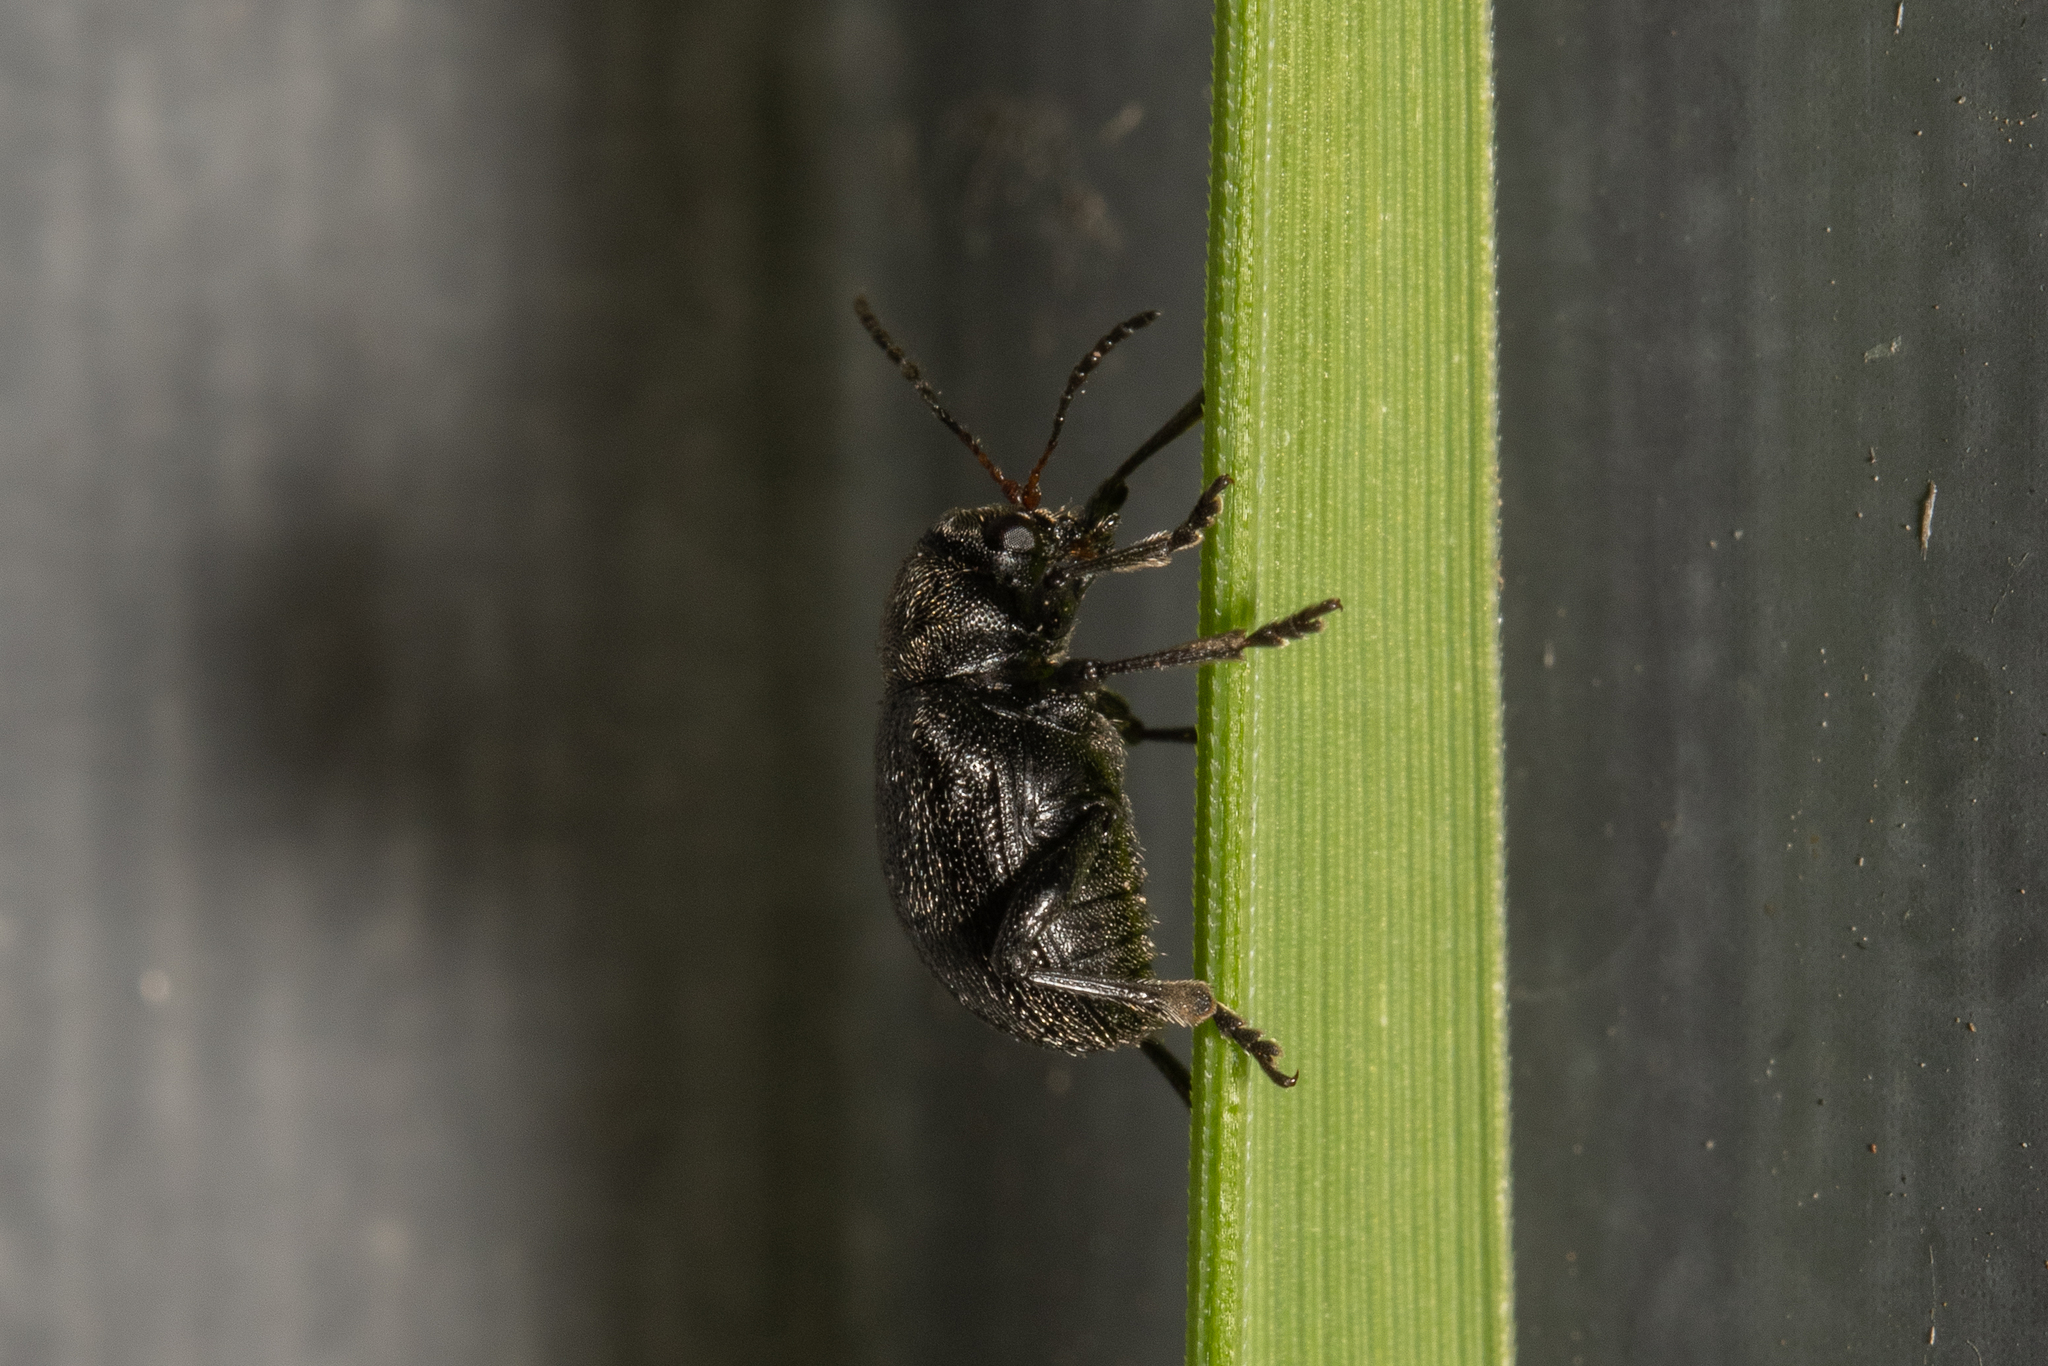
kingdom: Animalia
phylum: Arthropoda
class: Insecta
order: Coleoptera
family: Chrysomelidae
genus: Bromius
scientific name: Bromius obscurus
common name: Western grape rootworm
